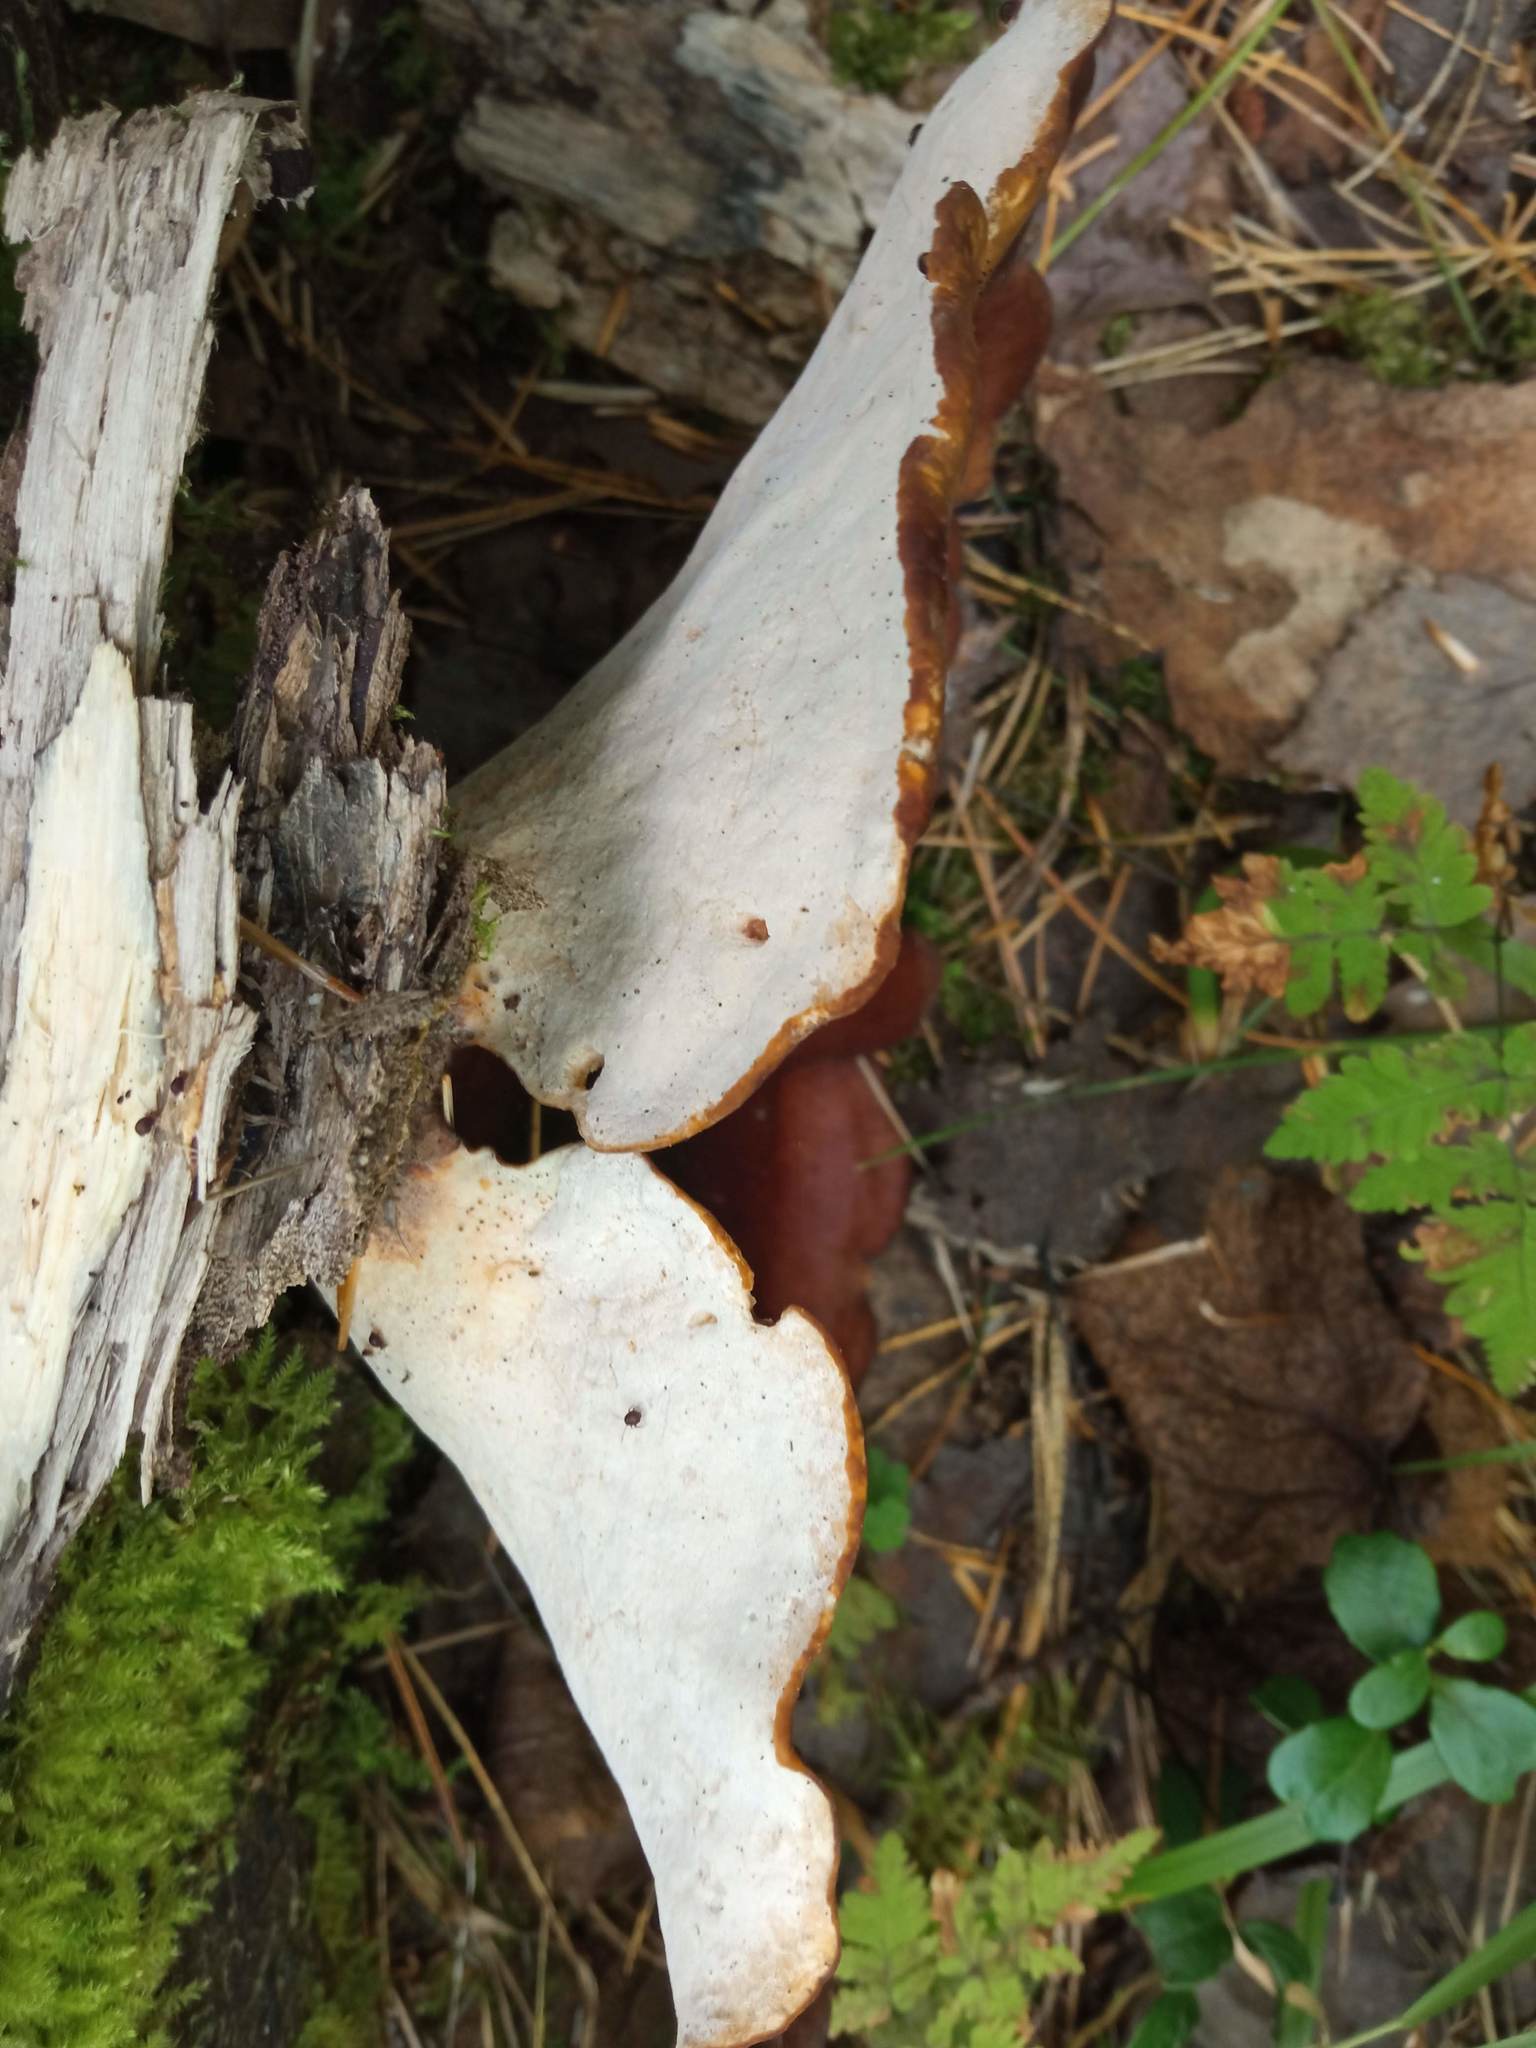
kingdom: Fungi
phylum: Basidiomycota
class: Agaricomycetes
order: Polyporales
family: Polyporaceae
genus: Picipes
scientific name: Picipes badius
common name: Bay polypore
